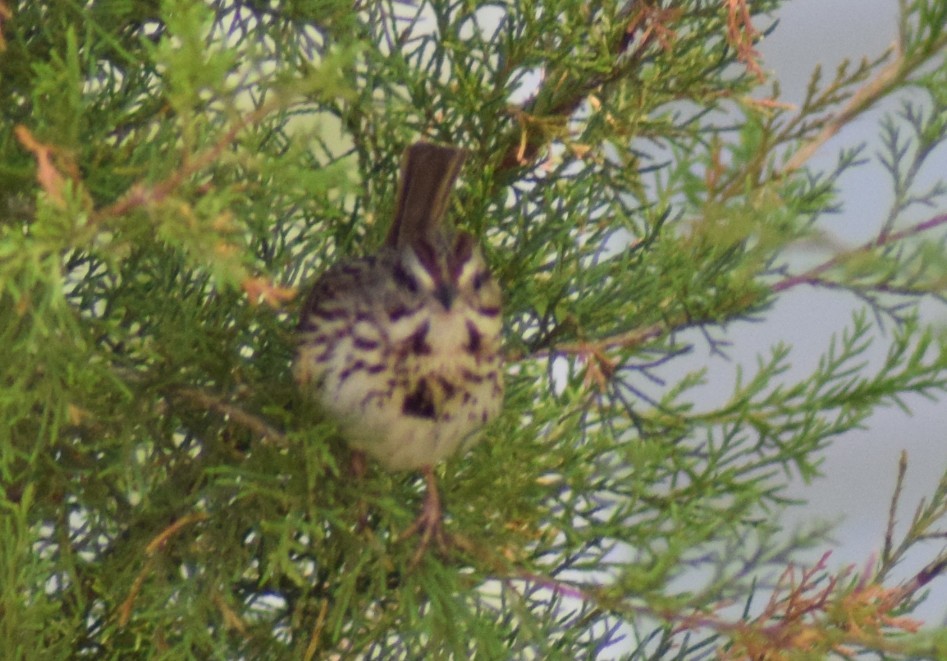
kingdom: Animalia
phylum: Chordata
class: Aves
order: Passeriformes
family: Passerellidae
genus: Melospiza
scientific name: Melospiza melodia
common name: Song sparrow
